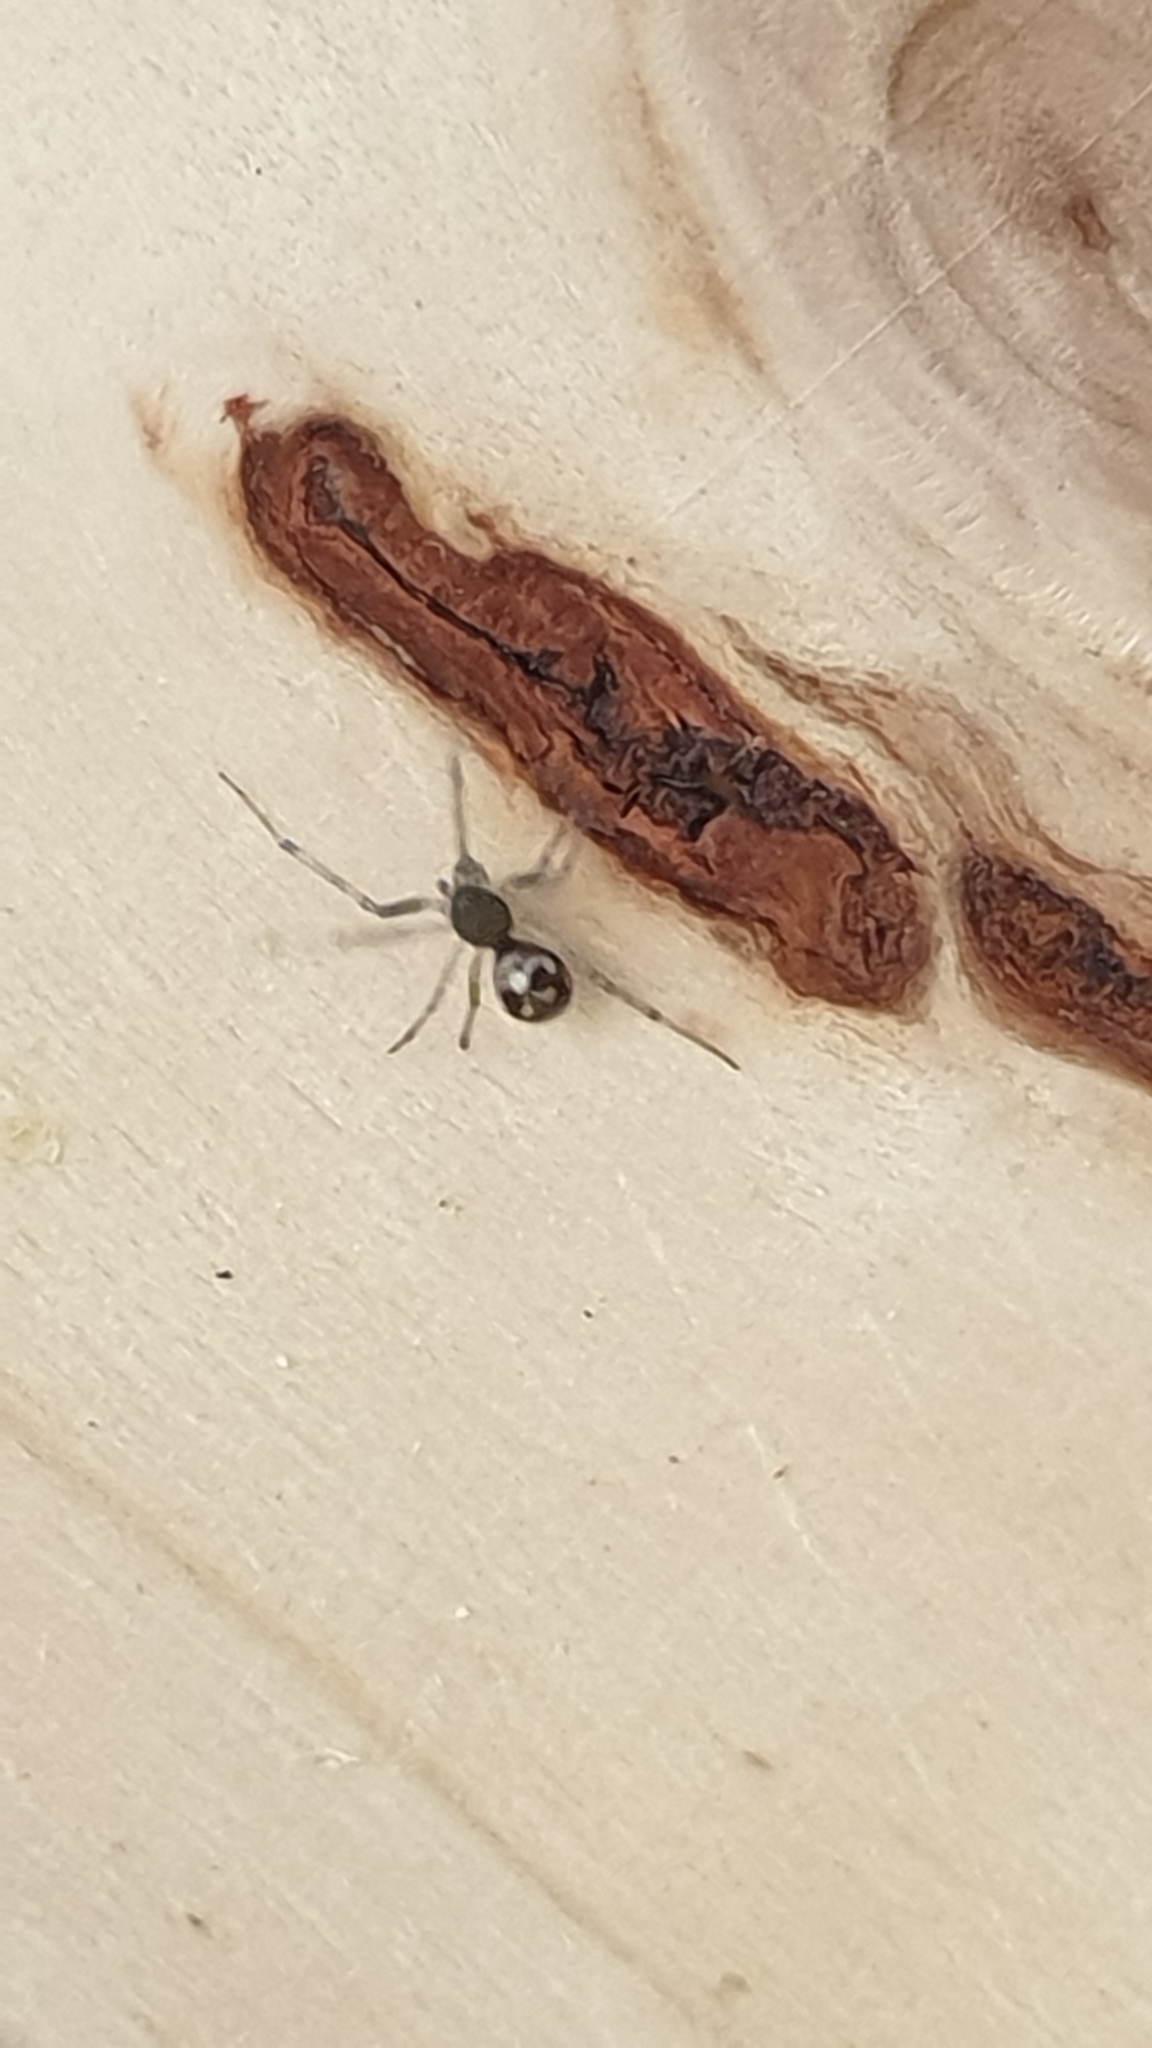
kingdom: Animalia
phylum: Arthropoda
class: Arachnida
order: Araneae
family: Theridiidae
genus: Steatoda
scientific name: Steatoda triangulosa
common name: Triangulate bud spider
